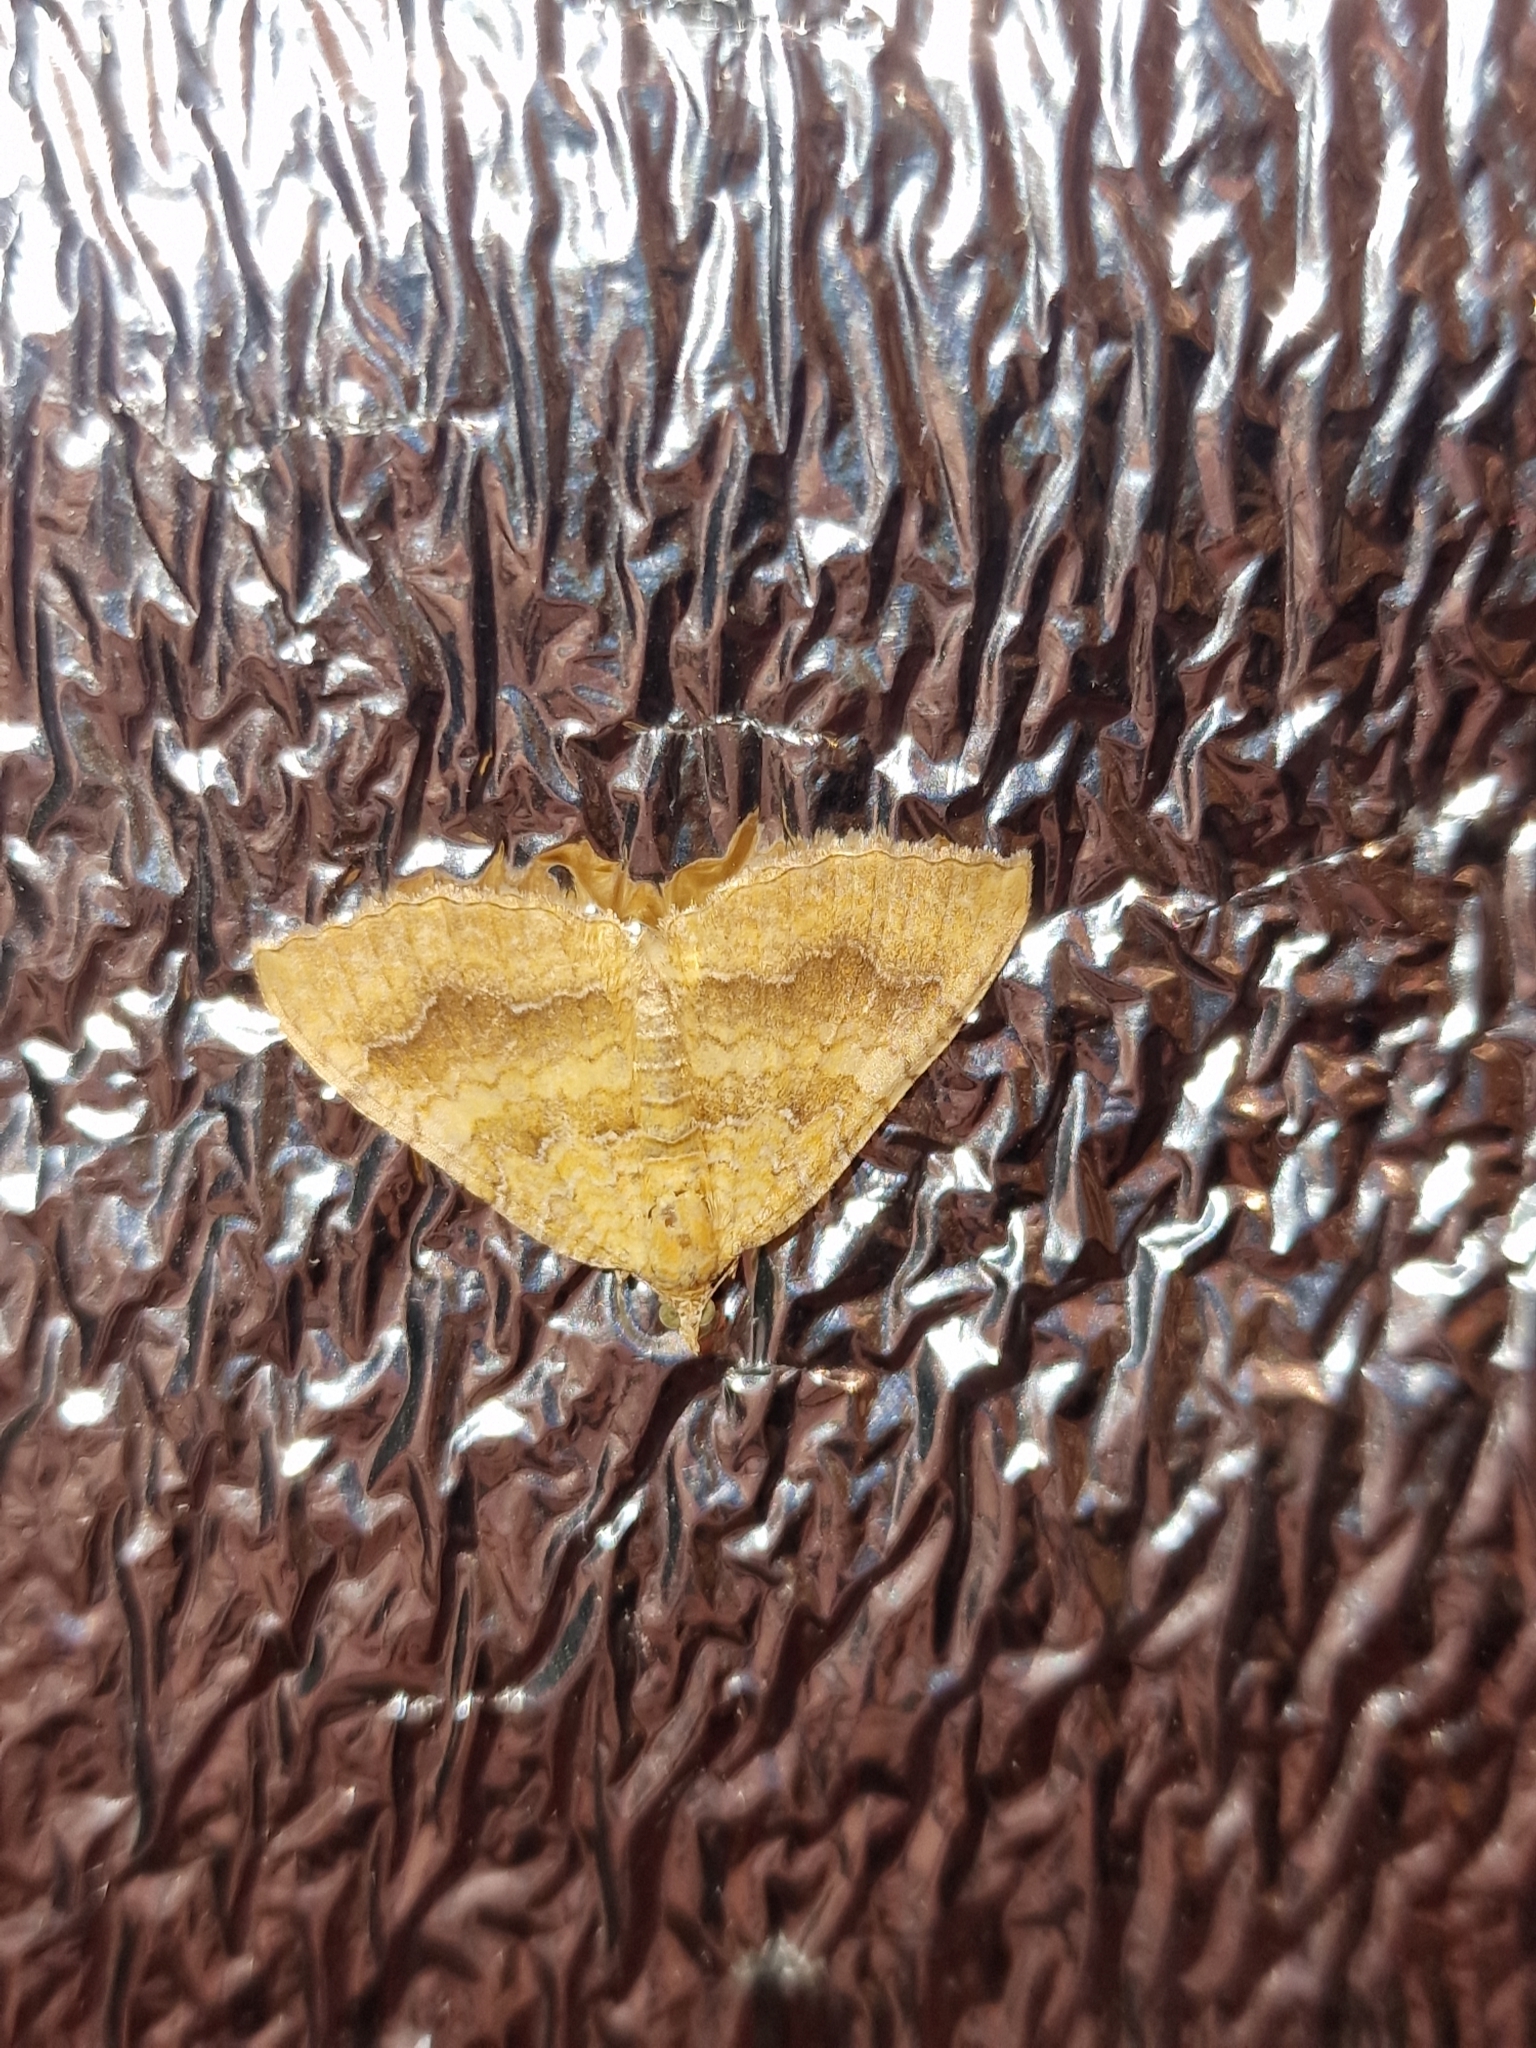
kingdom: Animalia
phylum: Arthropoda
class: Insecta
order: Lepidoptera
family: Geometridae
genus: Camptogramma
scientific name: Camptogramma bilineata
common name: Yellow shell
